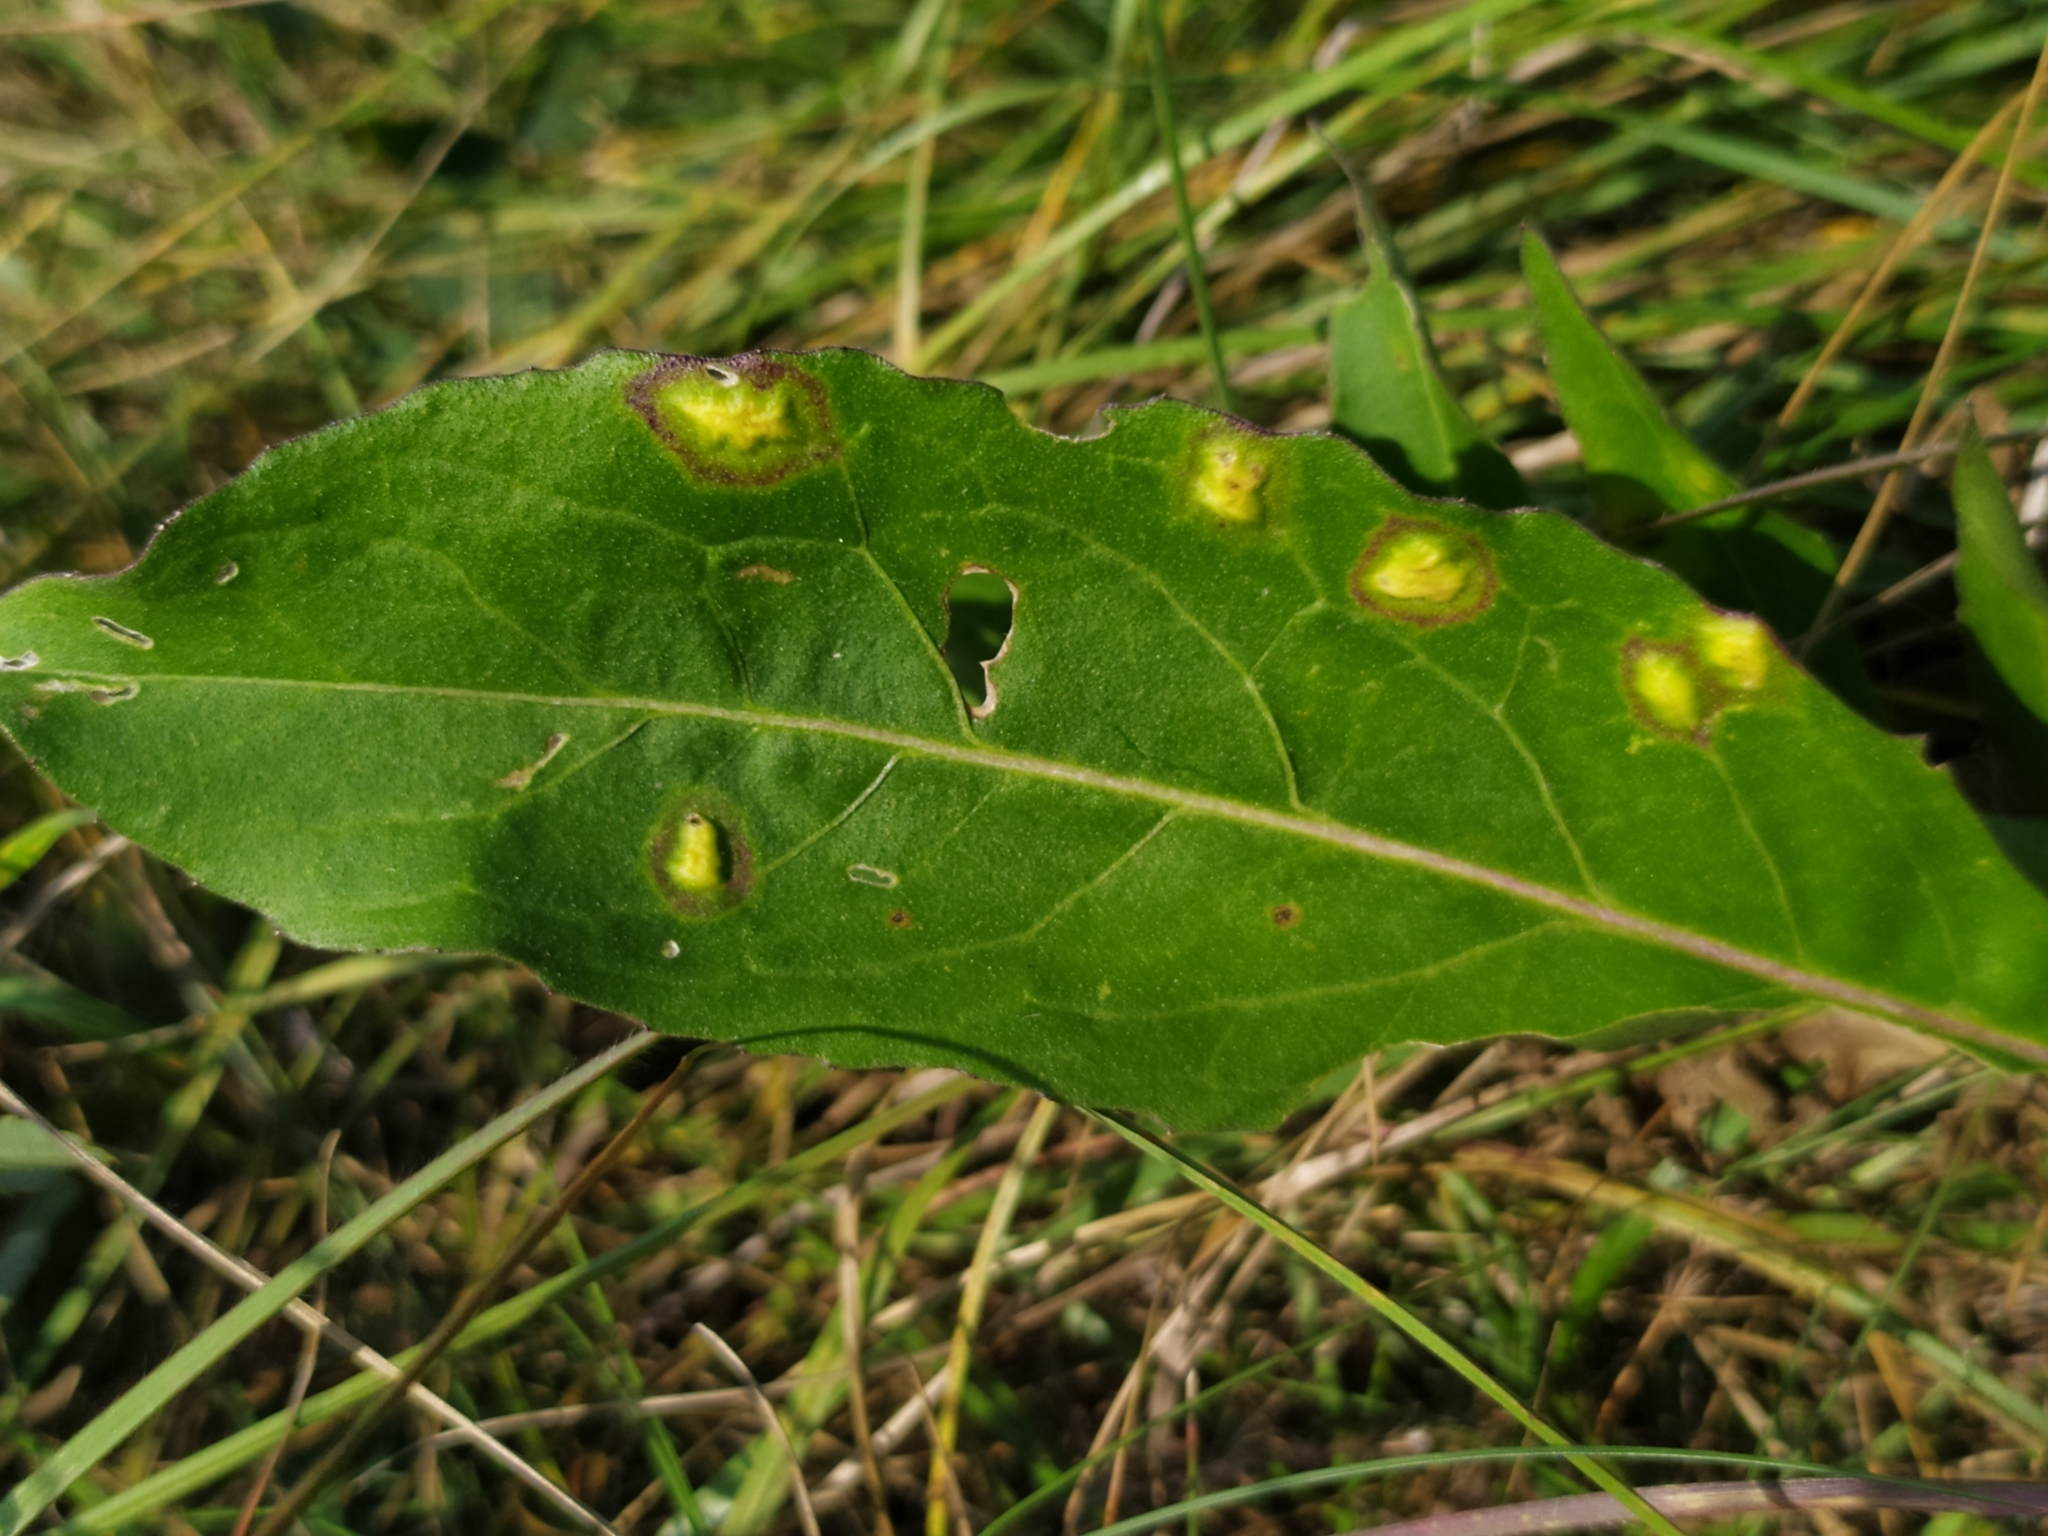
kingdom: Animalia
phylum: Arthropoda
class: Insecta
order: Diptera
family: Cecidomyiidae
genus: Loewiola
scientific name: Loewiola centaureae
